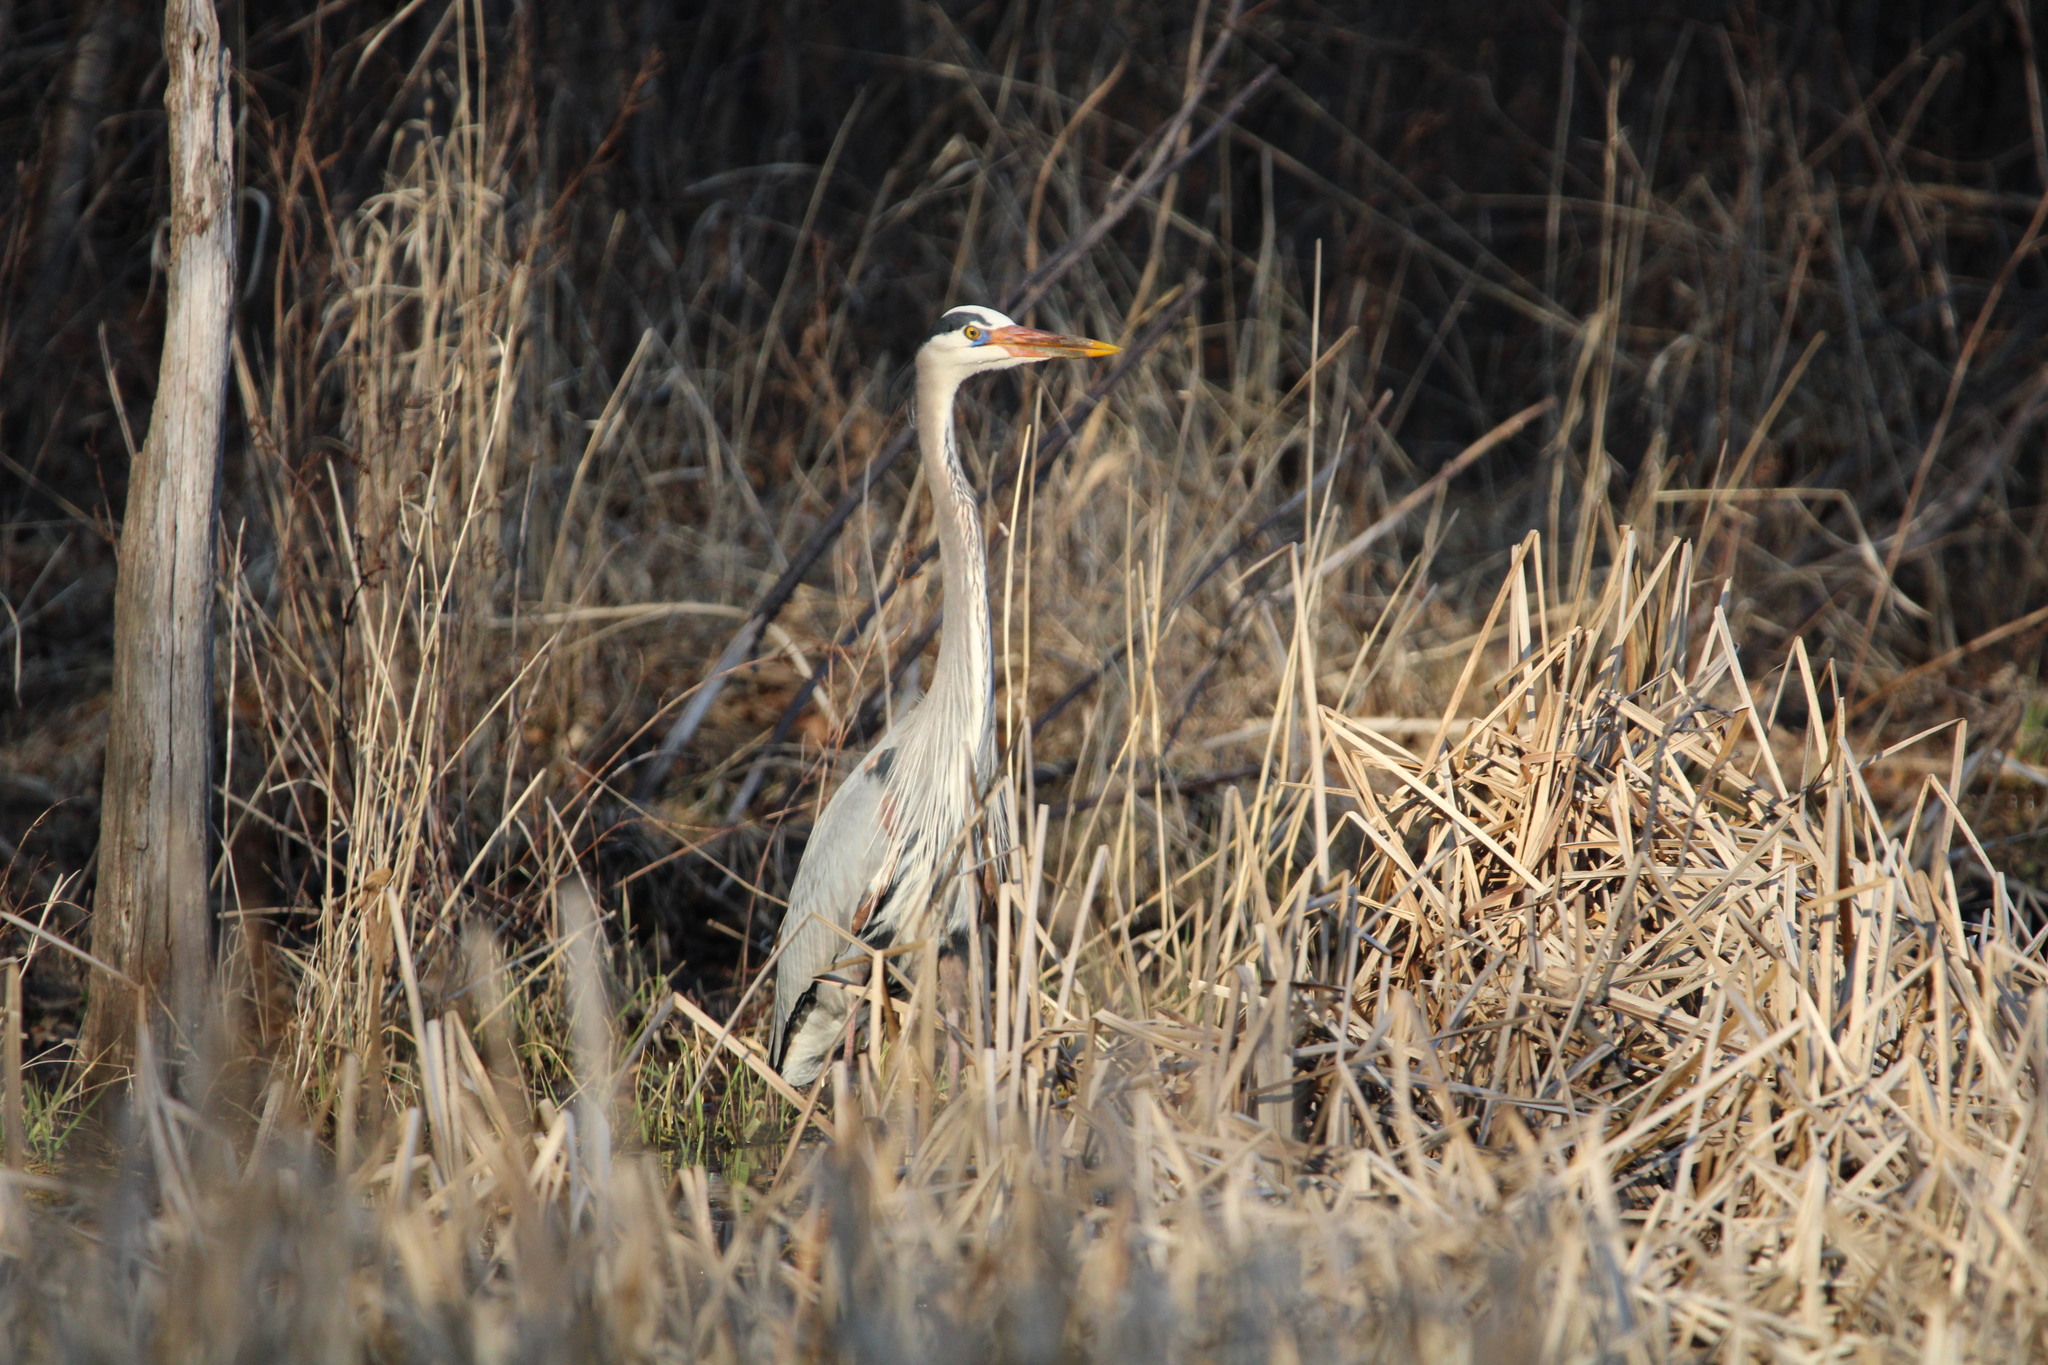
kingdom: Animalia
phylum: Chordata
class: Aves
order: Pelecaniformes
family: Ardeidae
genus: Ardea
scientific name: Ardea herodias
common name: Great blue heron
